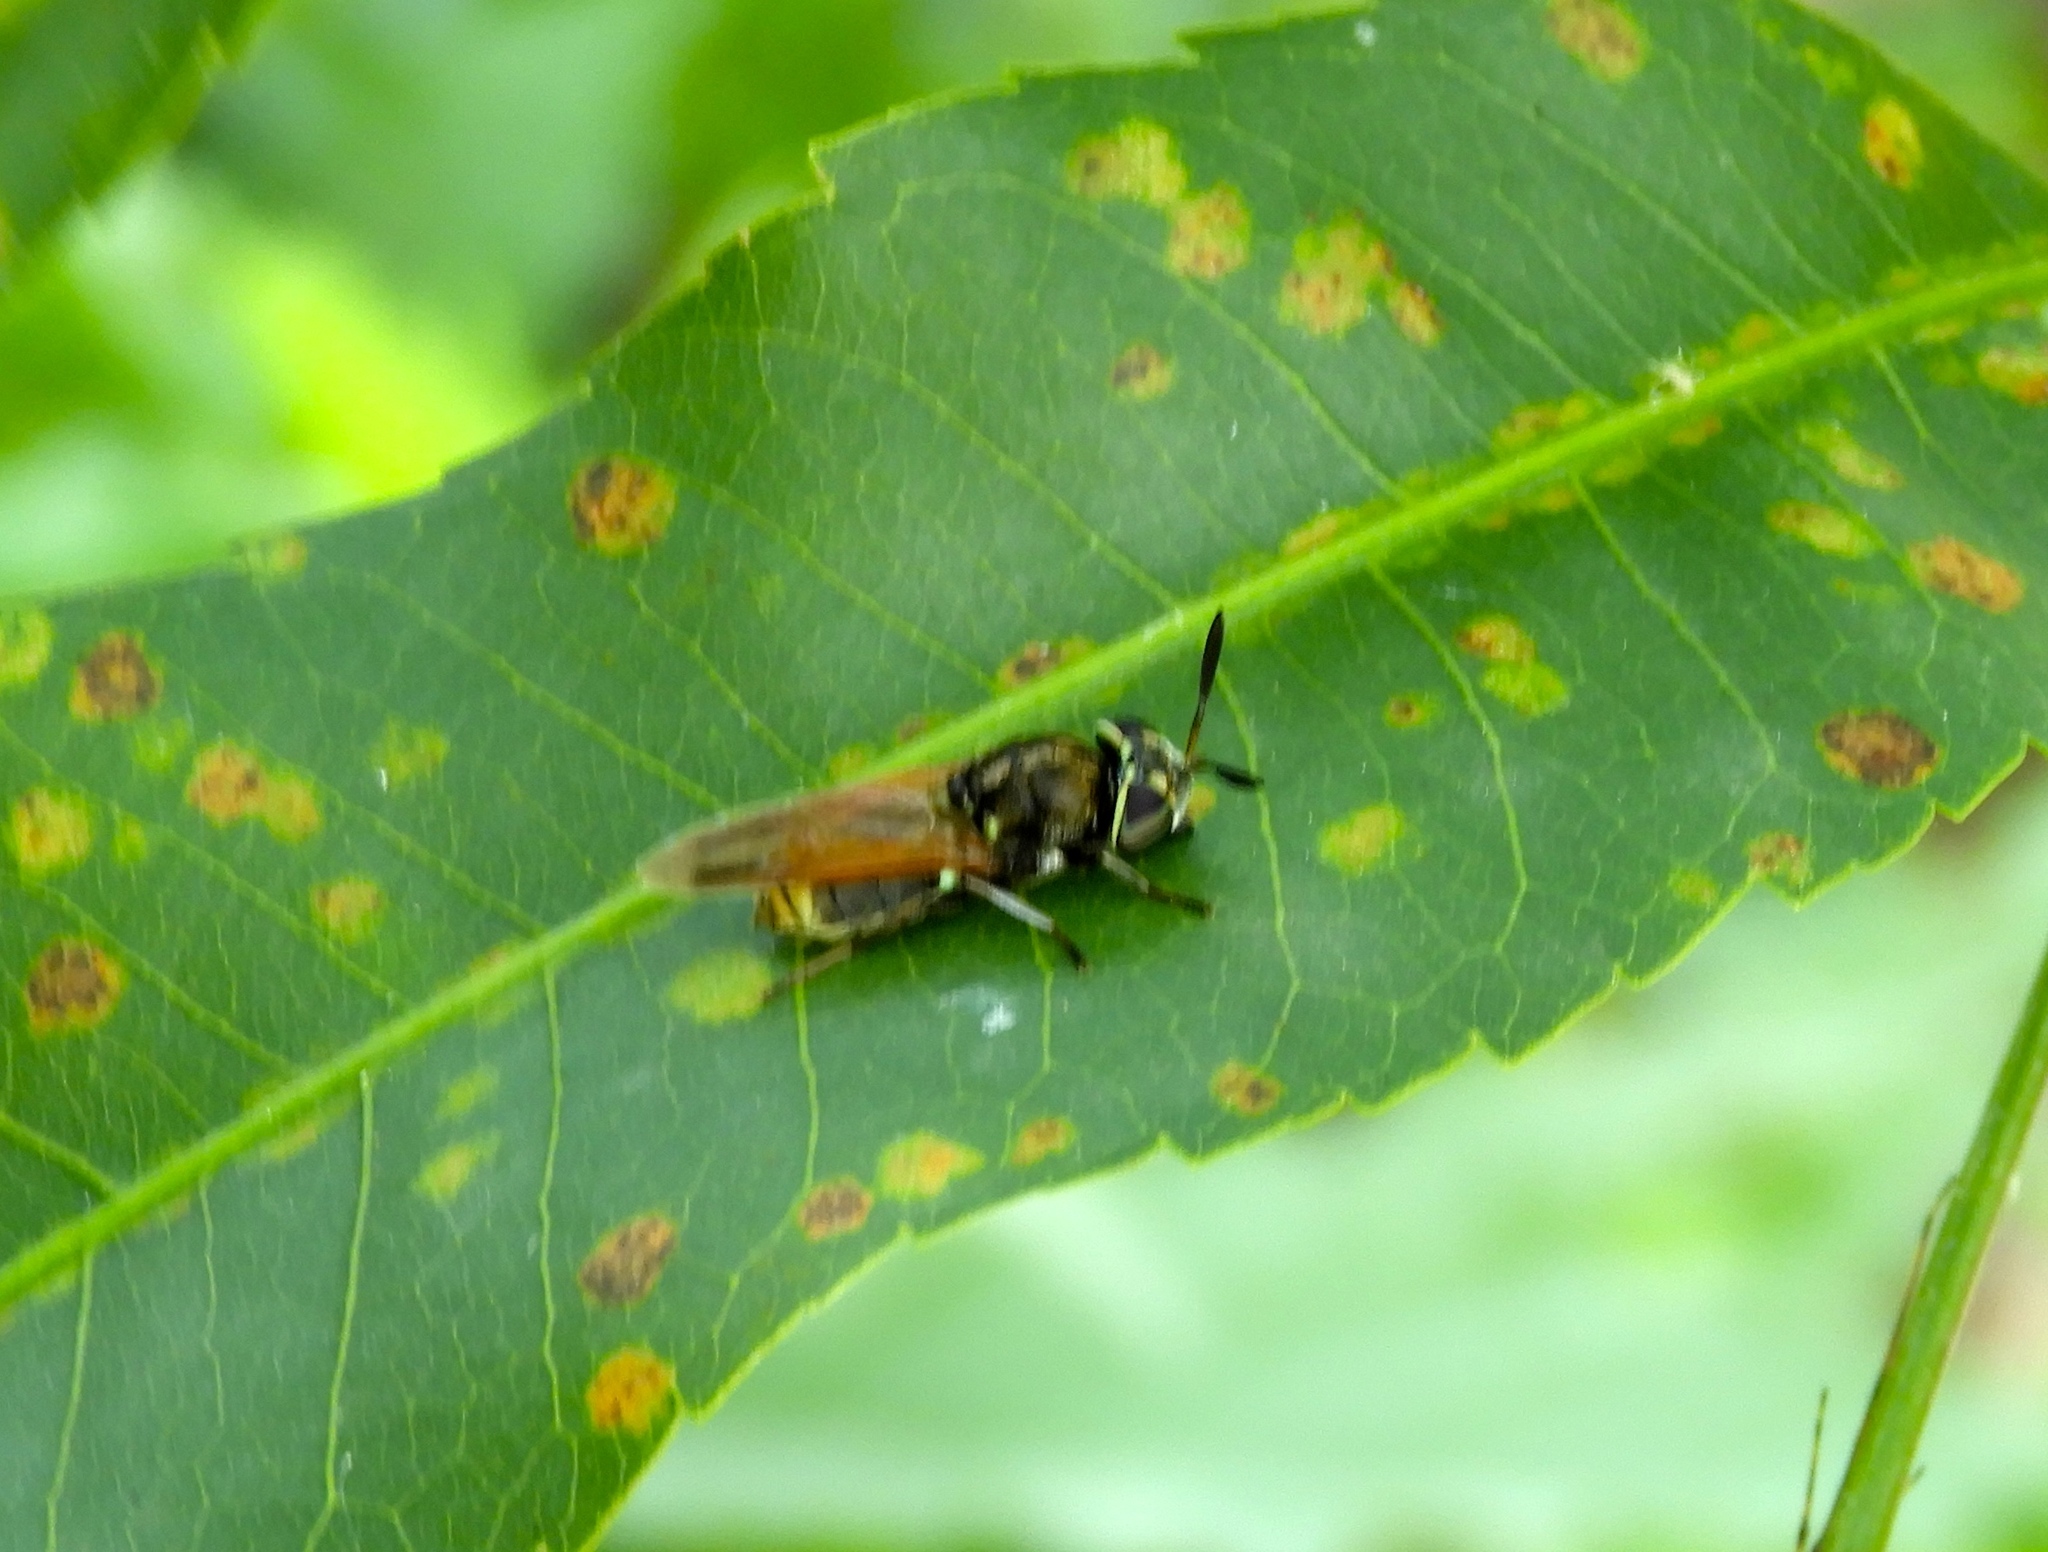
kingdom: Animalia
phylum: Arthropoda
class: Insecta
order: Diptera
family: Stratiomyidae
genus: Hoplitimyia
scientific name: Hoplitimyia
